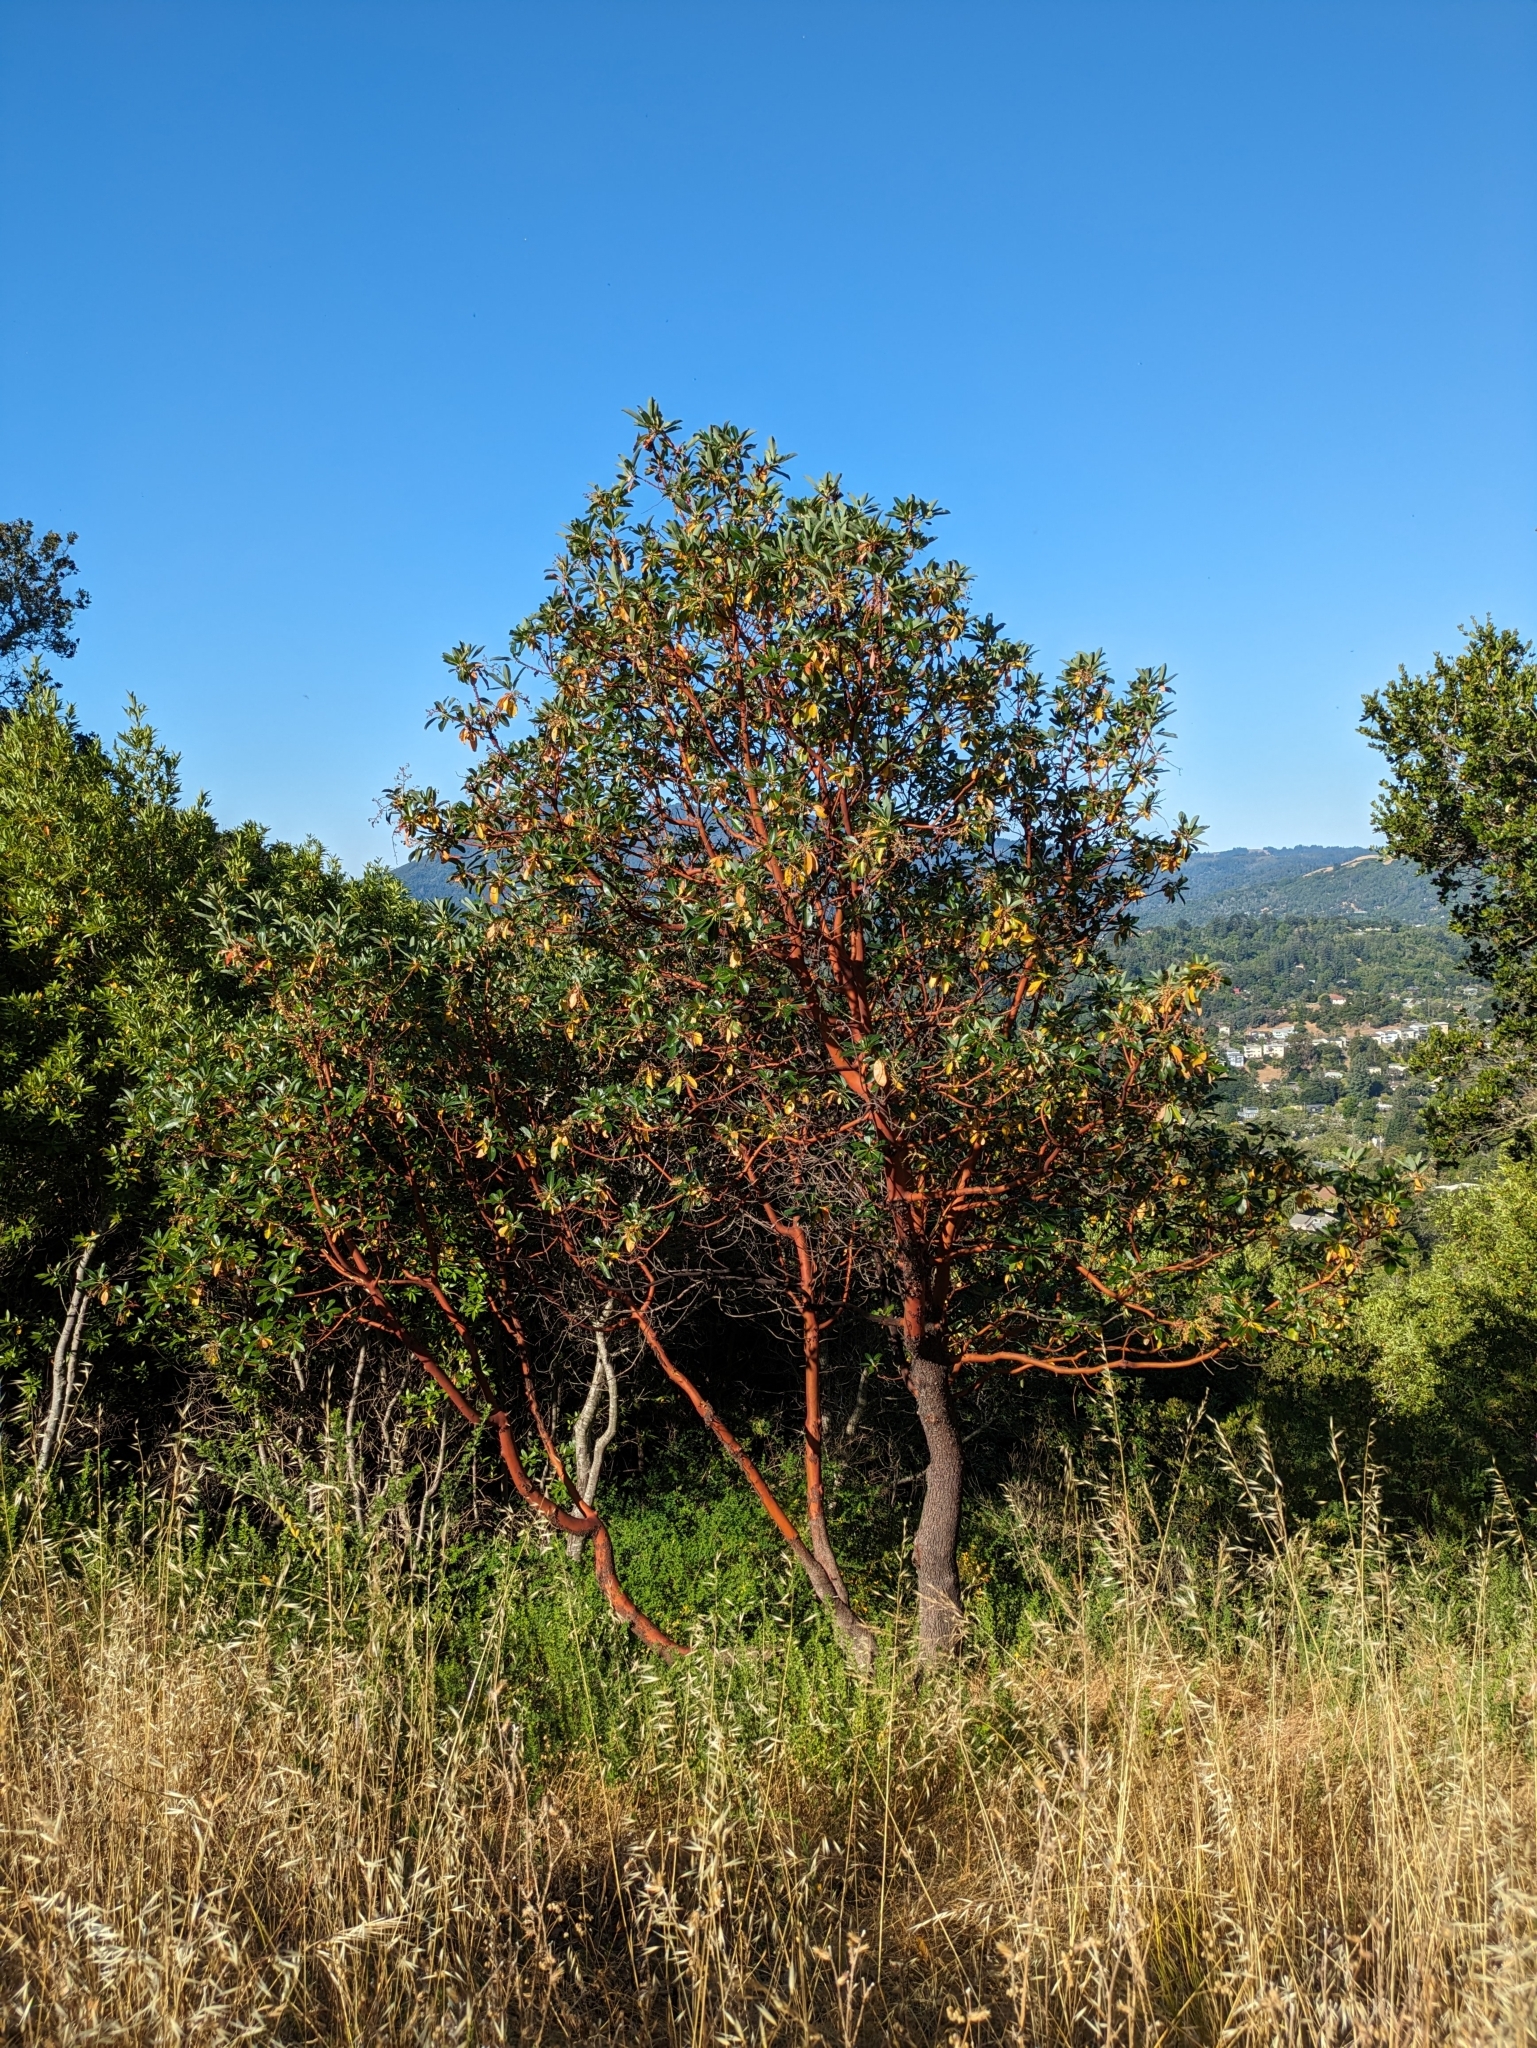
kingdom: Plantae
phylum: Tracheophyta
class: Magnoliopsida
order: Ericales
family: Ericaceae
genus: Arbutus
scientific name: Arbutus menziesii
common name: Pacific madrone
